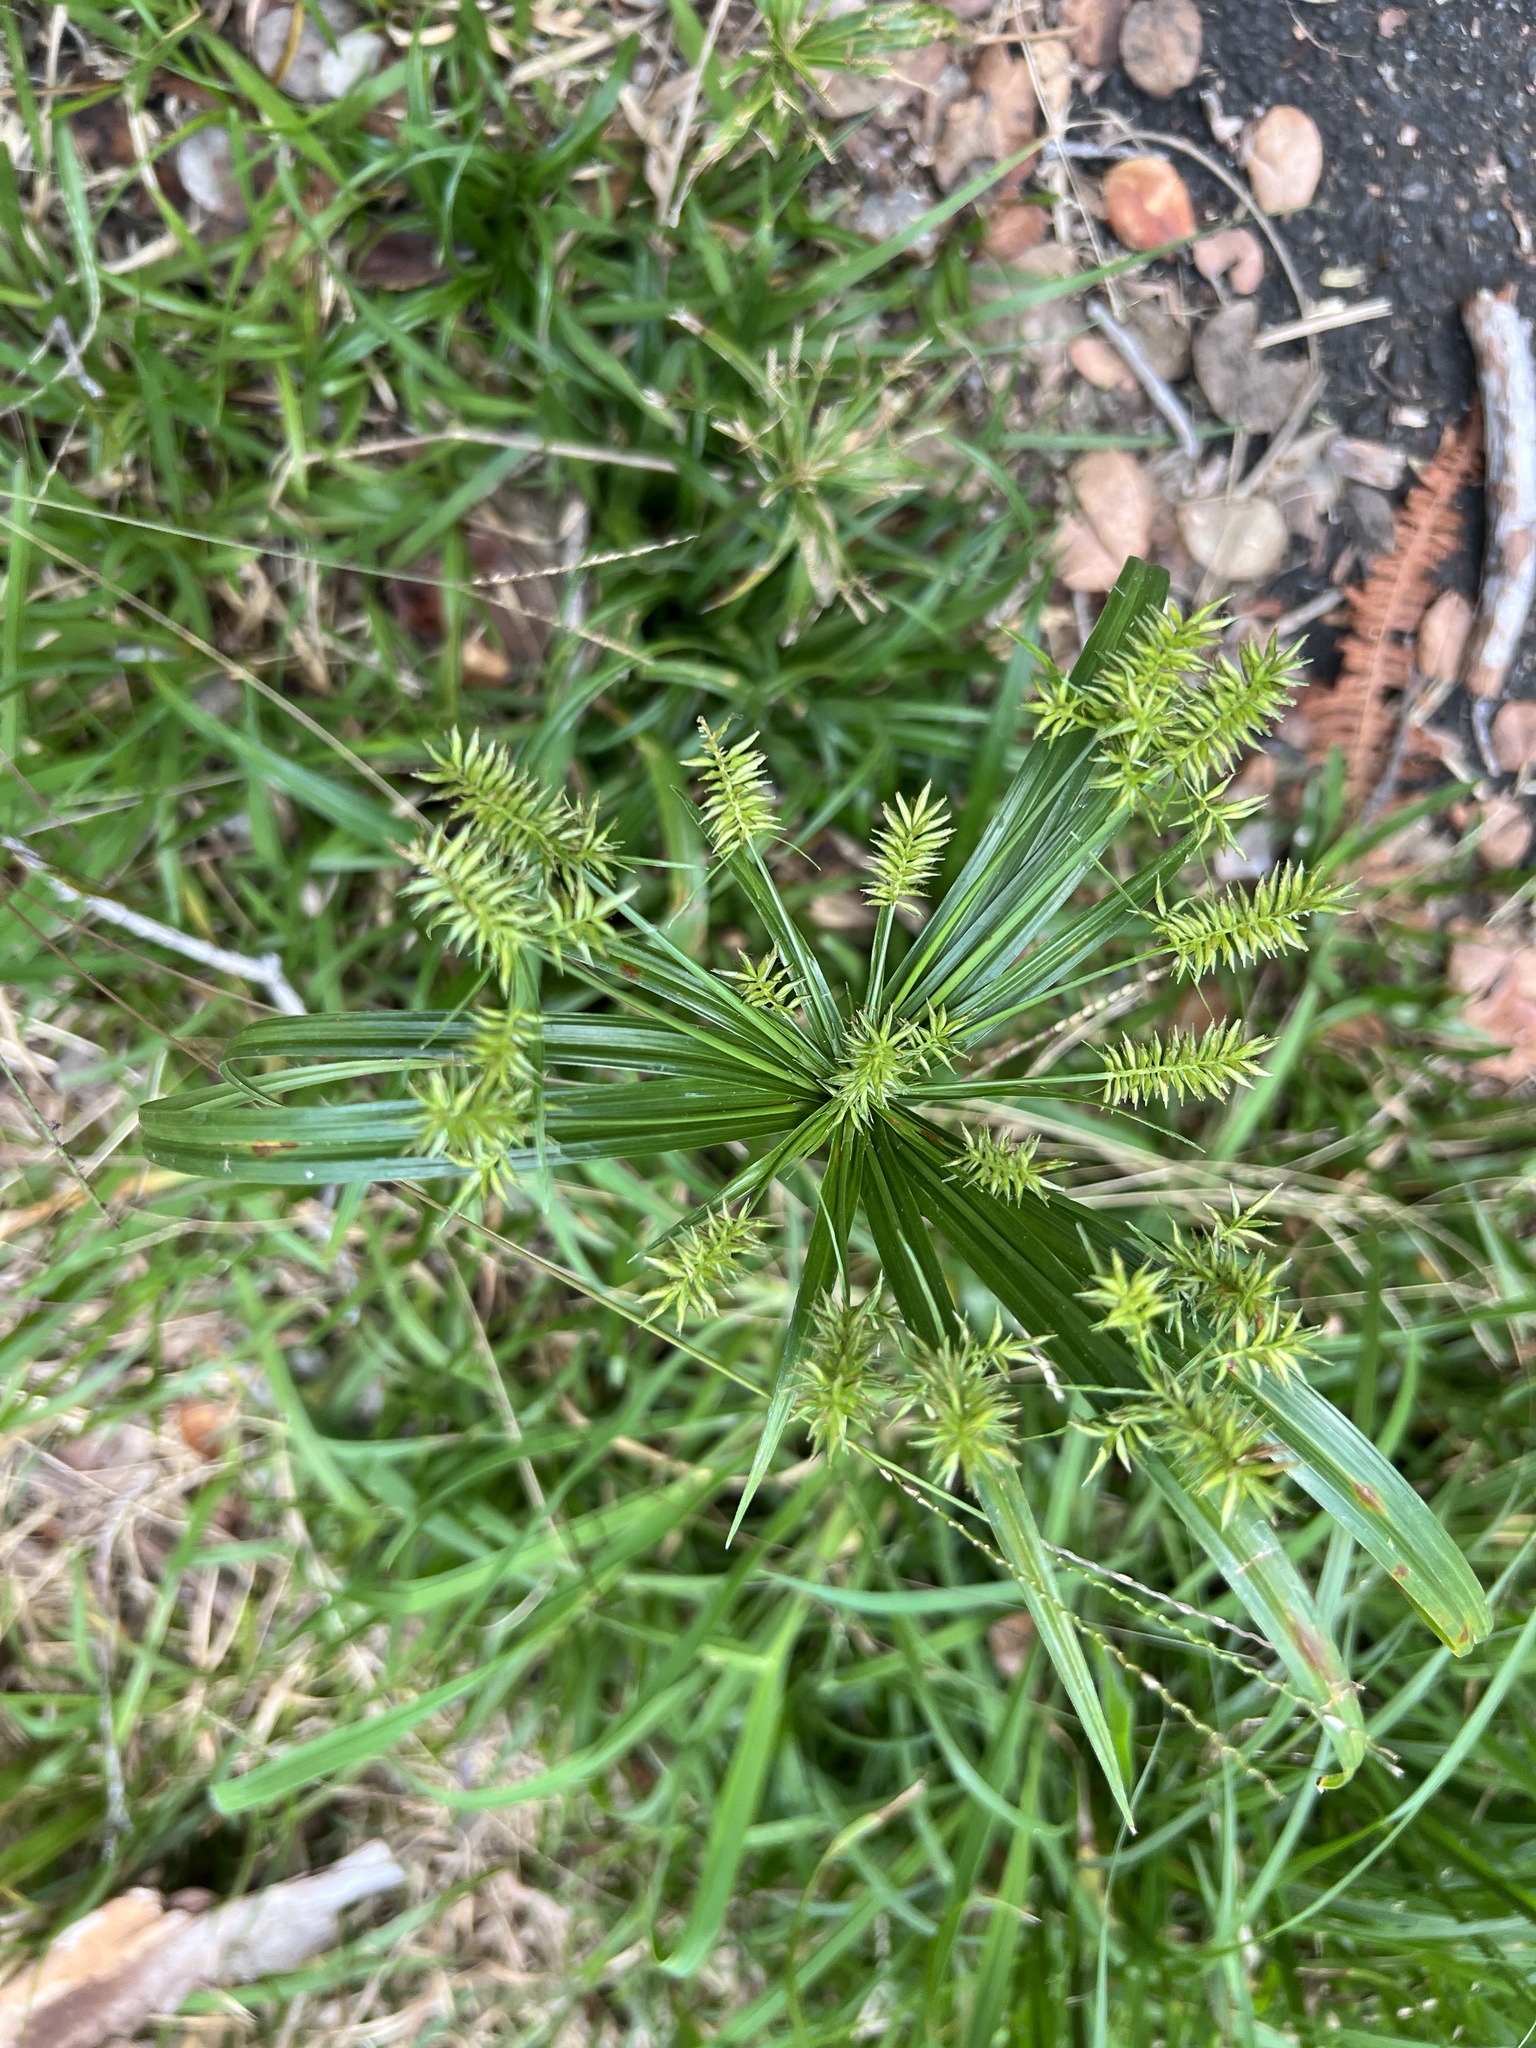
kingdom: Plantae
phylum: Tracheophyta
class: Liliopsida
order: Poales
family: Cyperaceae
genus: Cyperus
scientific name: Cyperus meyenianus
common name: Meyen's flatsedge
